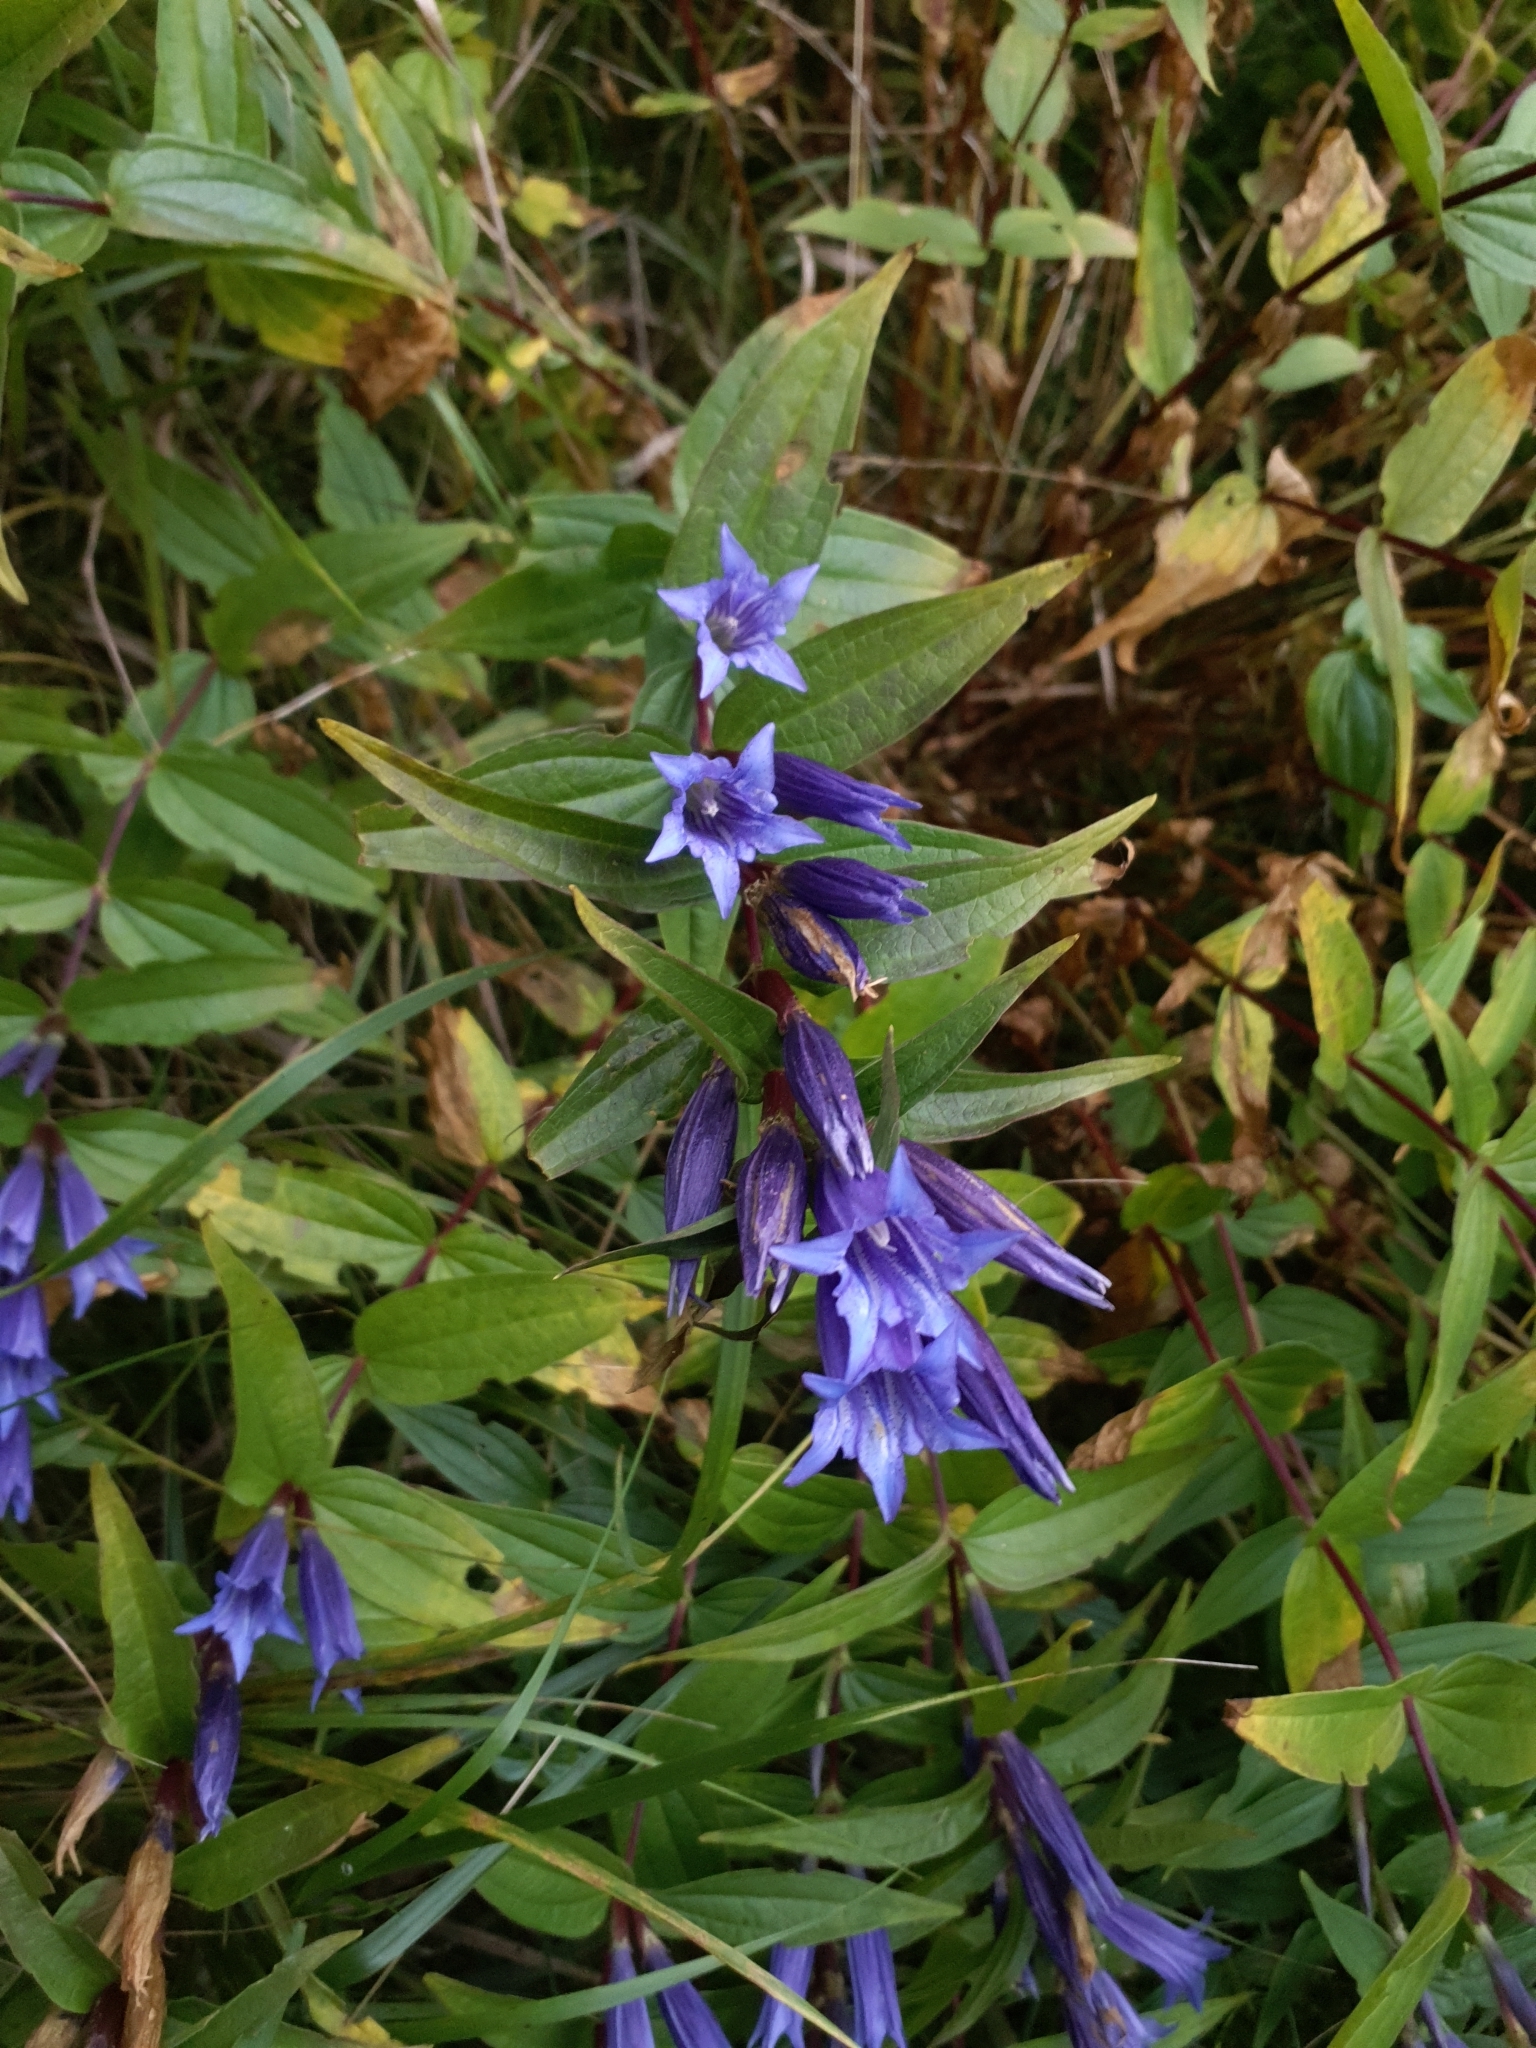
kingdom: Plantae
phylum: Tracheophyta
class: Magnoliopsida
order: Gentianales
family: Gentianaceae
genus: Gentiana
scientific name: Gentiana asclepiadea
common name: Willow gentian
